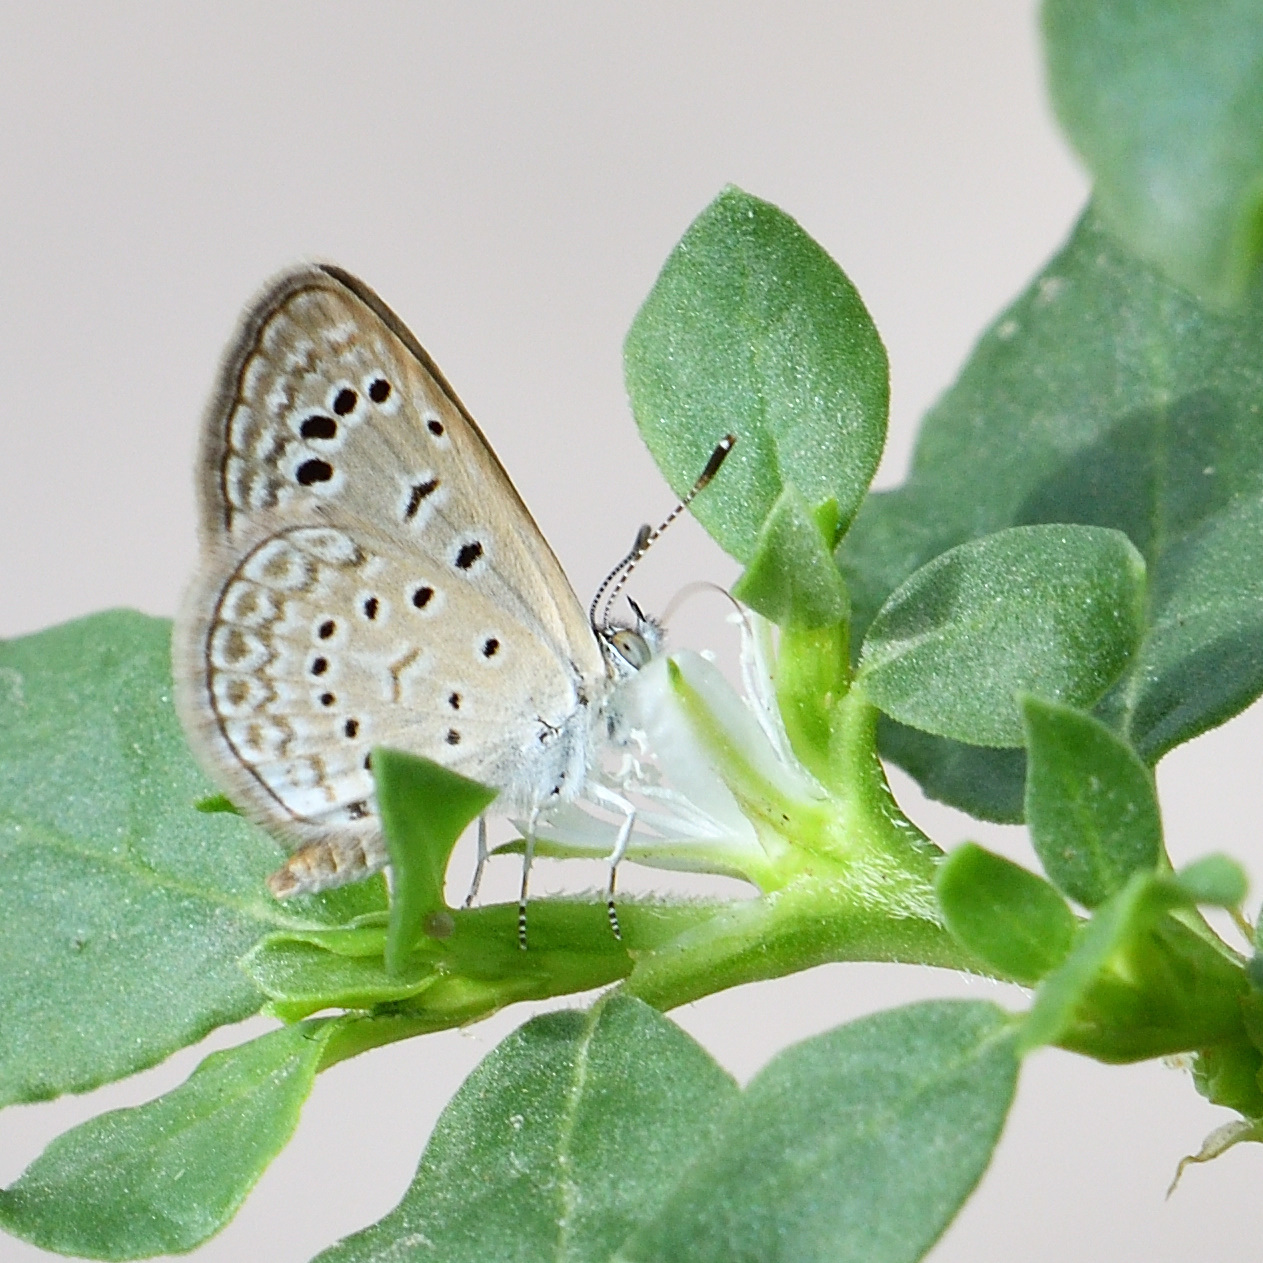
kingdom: Animalia
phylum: Arthropoda
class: Insecta
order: Lepidoptera
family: Lycaenidae
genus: Zizeeria
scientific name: Zizeeria karsandra
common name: Dark grass blue
